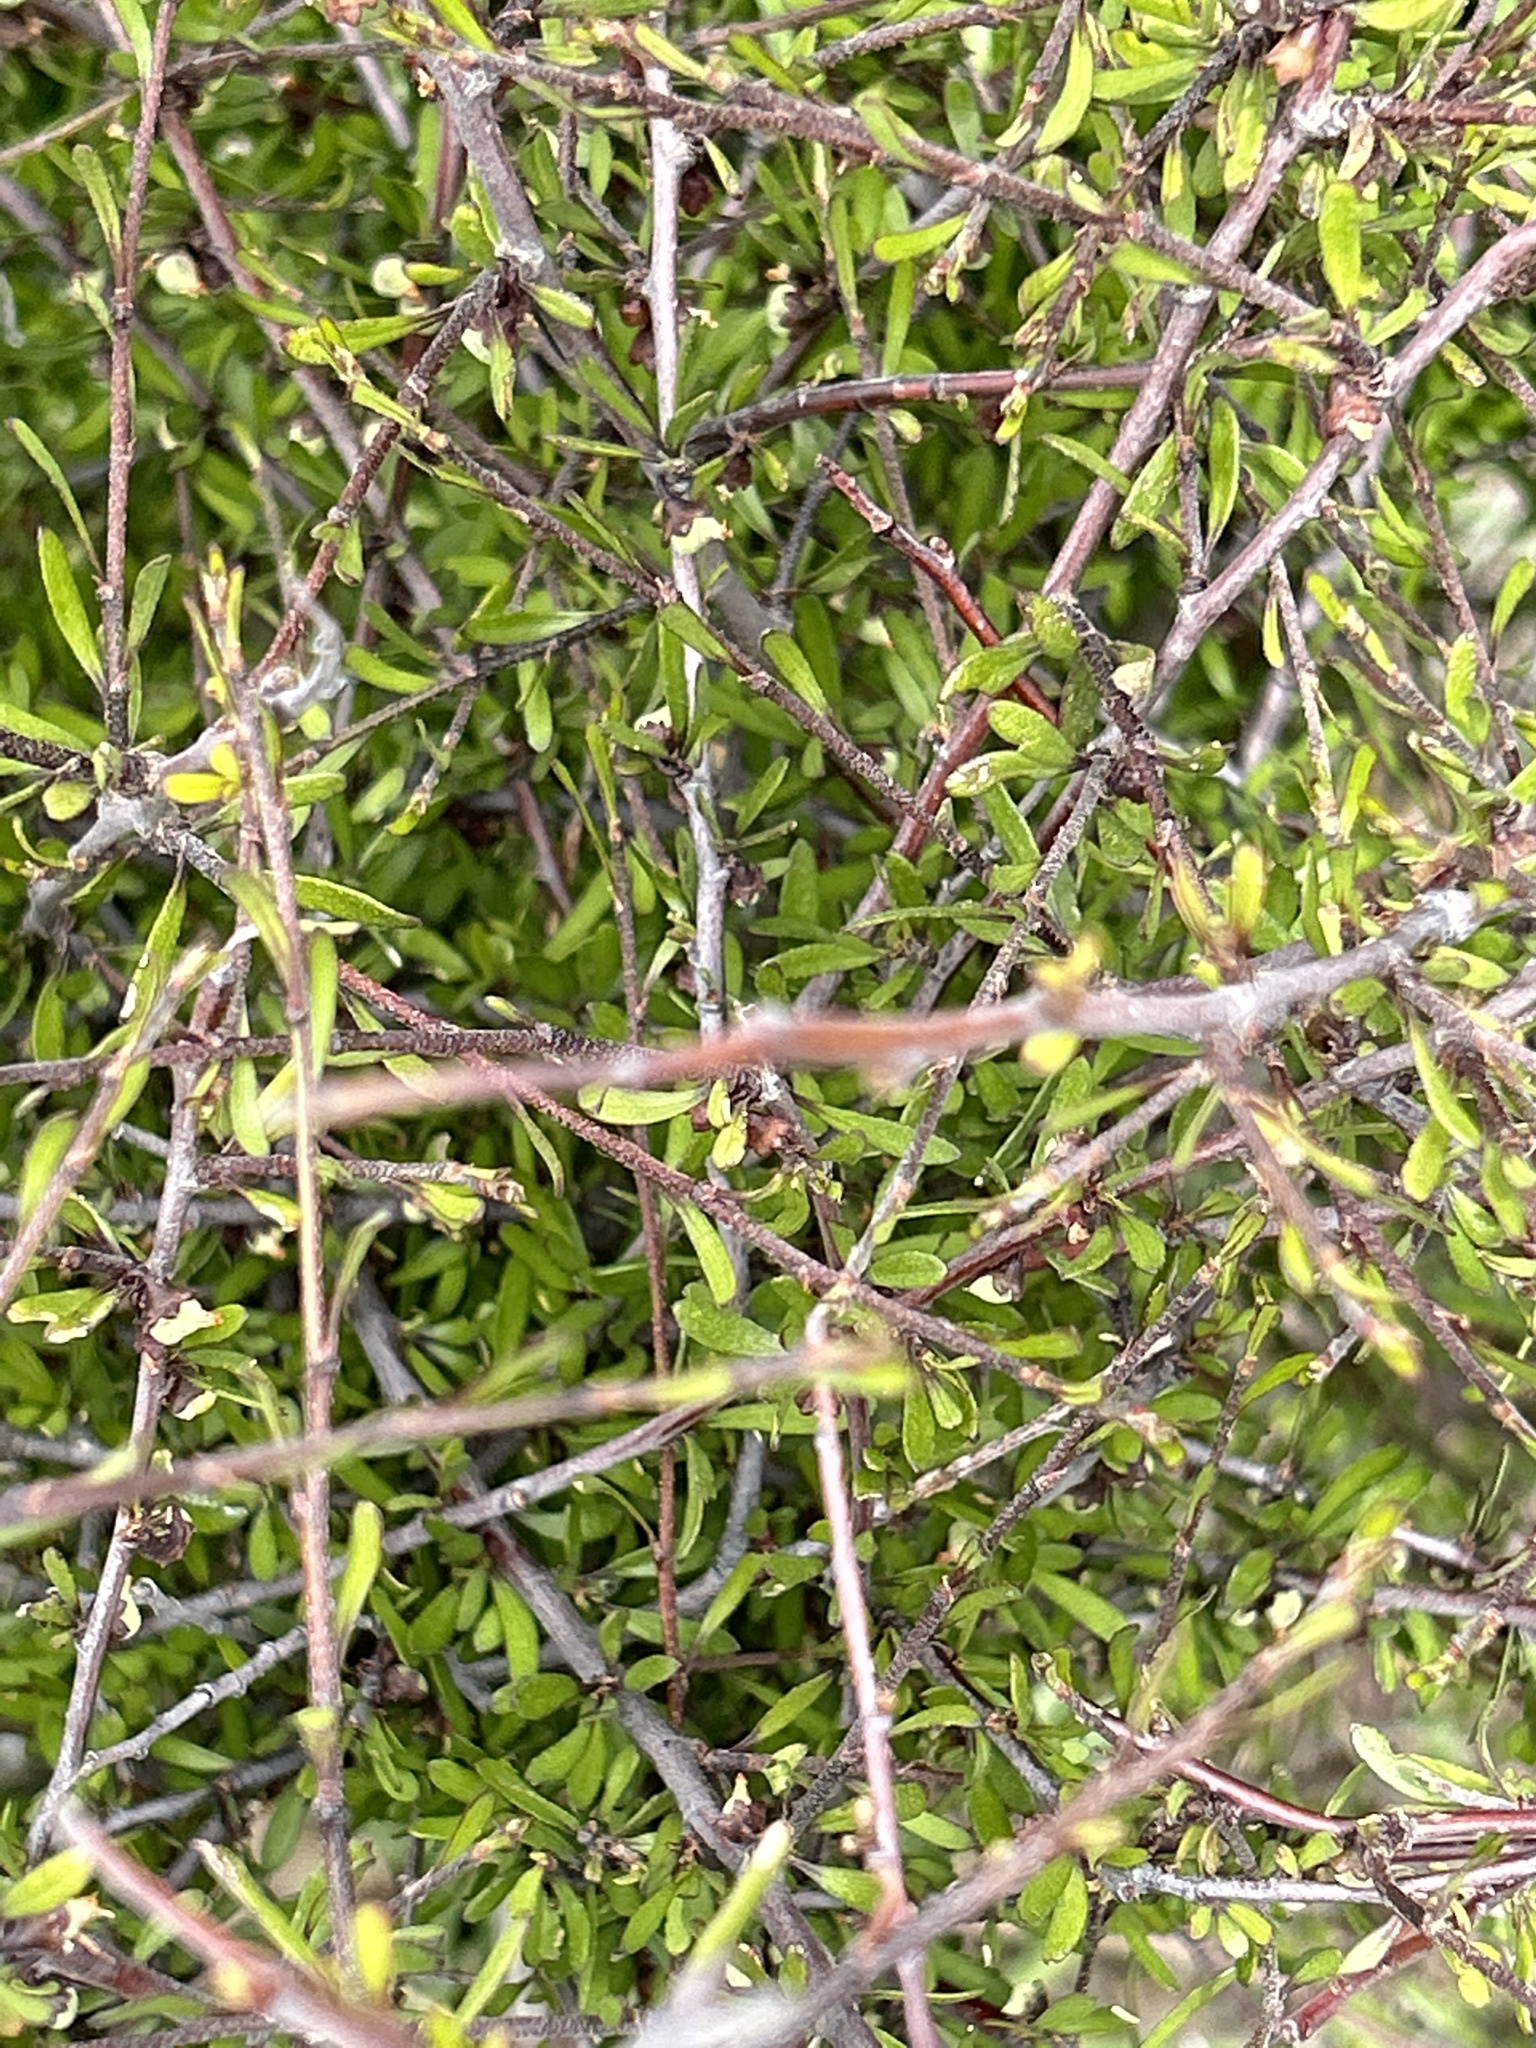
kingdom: Plantae
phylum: Tracheophyta
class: Magnoliopsida
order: Malvales
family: Malvaceae
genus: Plagianthus
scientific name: Plagianthus divaricatus
